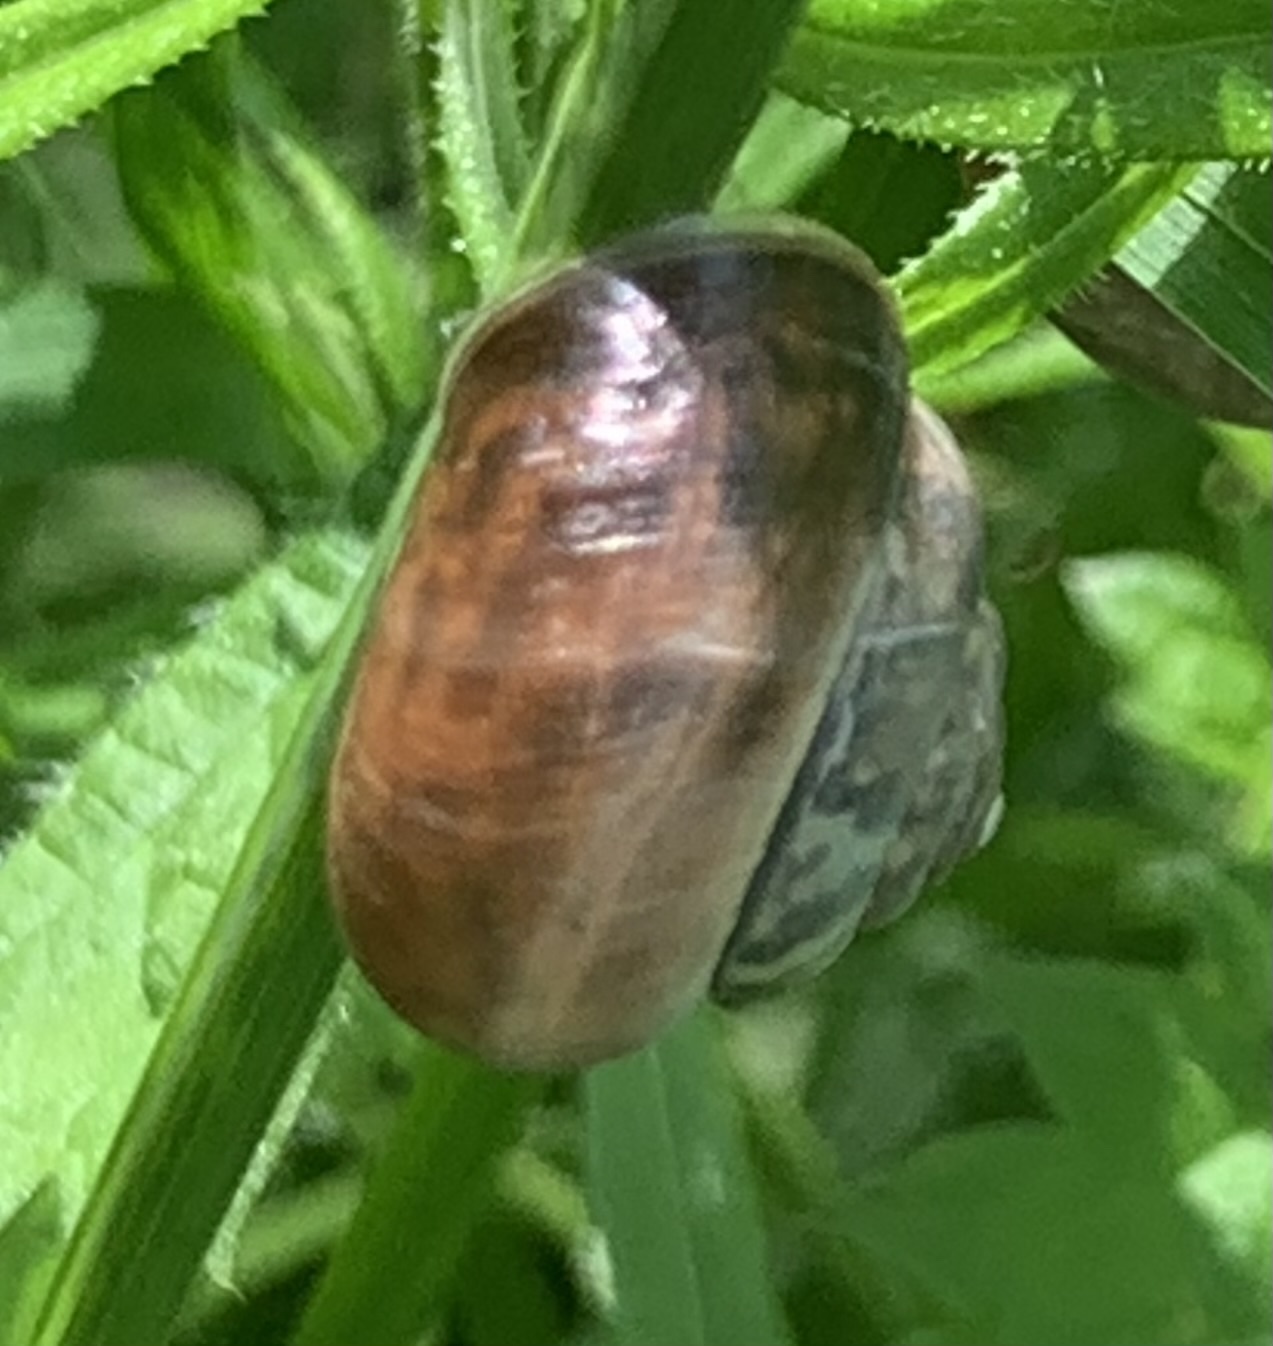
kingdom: Animalia
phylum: Mollusca
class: Gastropoda
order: Stylommatophora
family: Hygromiidae
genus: Monacha
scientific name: Monacha cantiana
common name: Kentish snail
